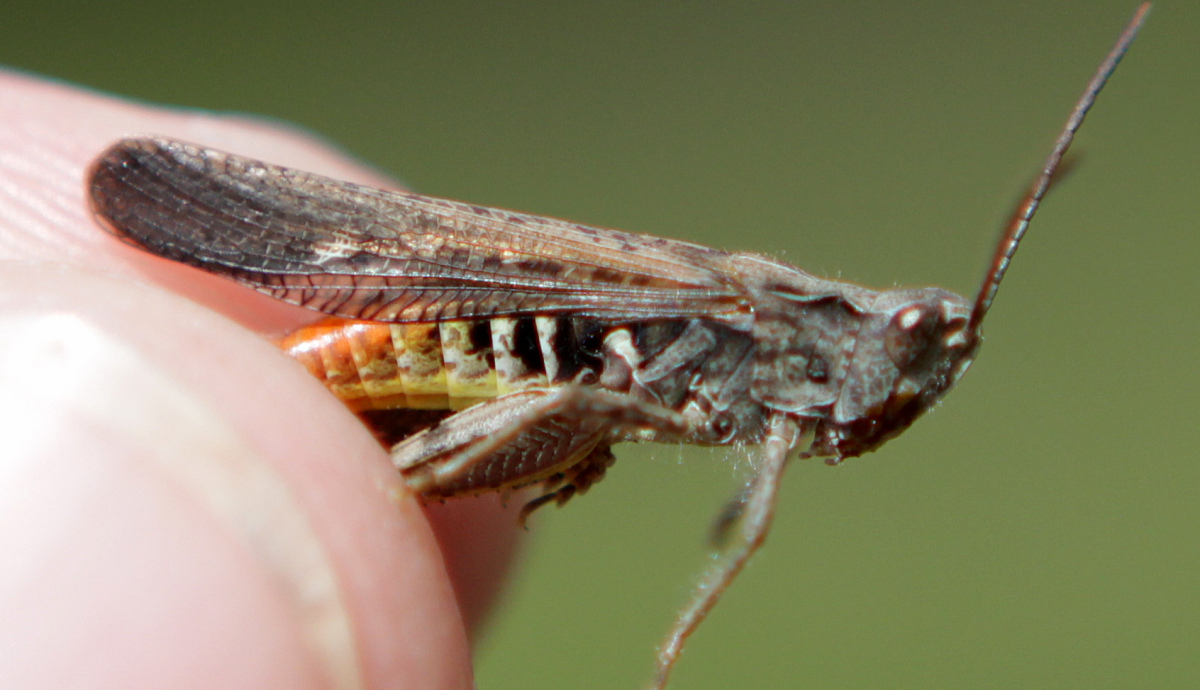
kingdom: Animalia
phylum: Arthropoda
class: Insecta
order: Orthoptera
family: Acrididae
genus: Chorthippus
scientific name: Chorthippus brunneus
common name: Field grasshopper
